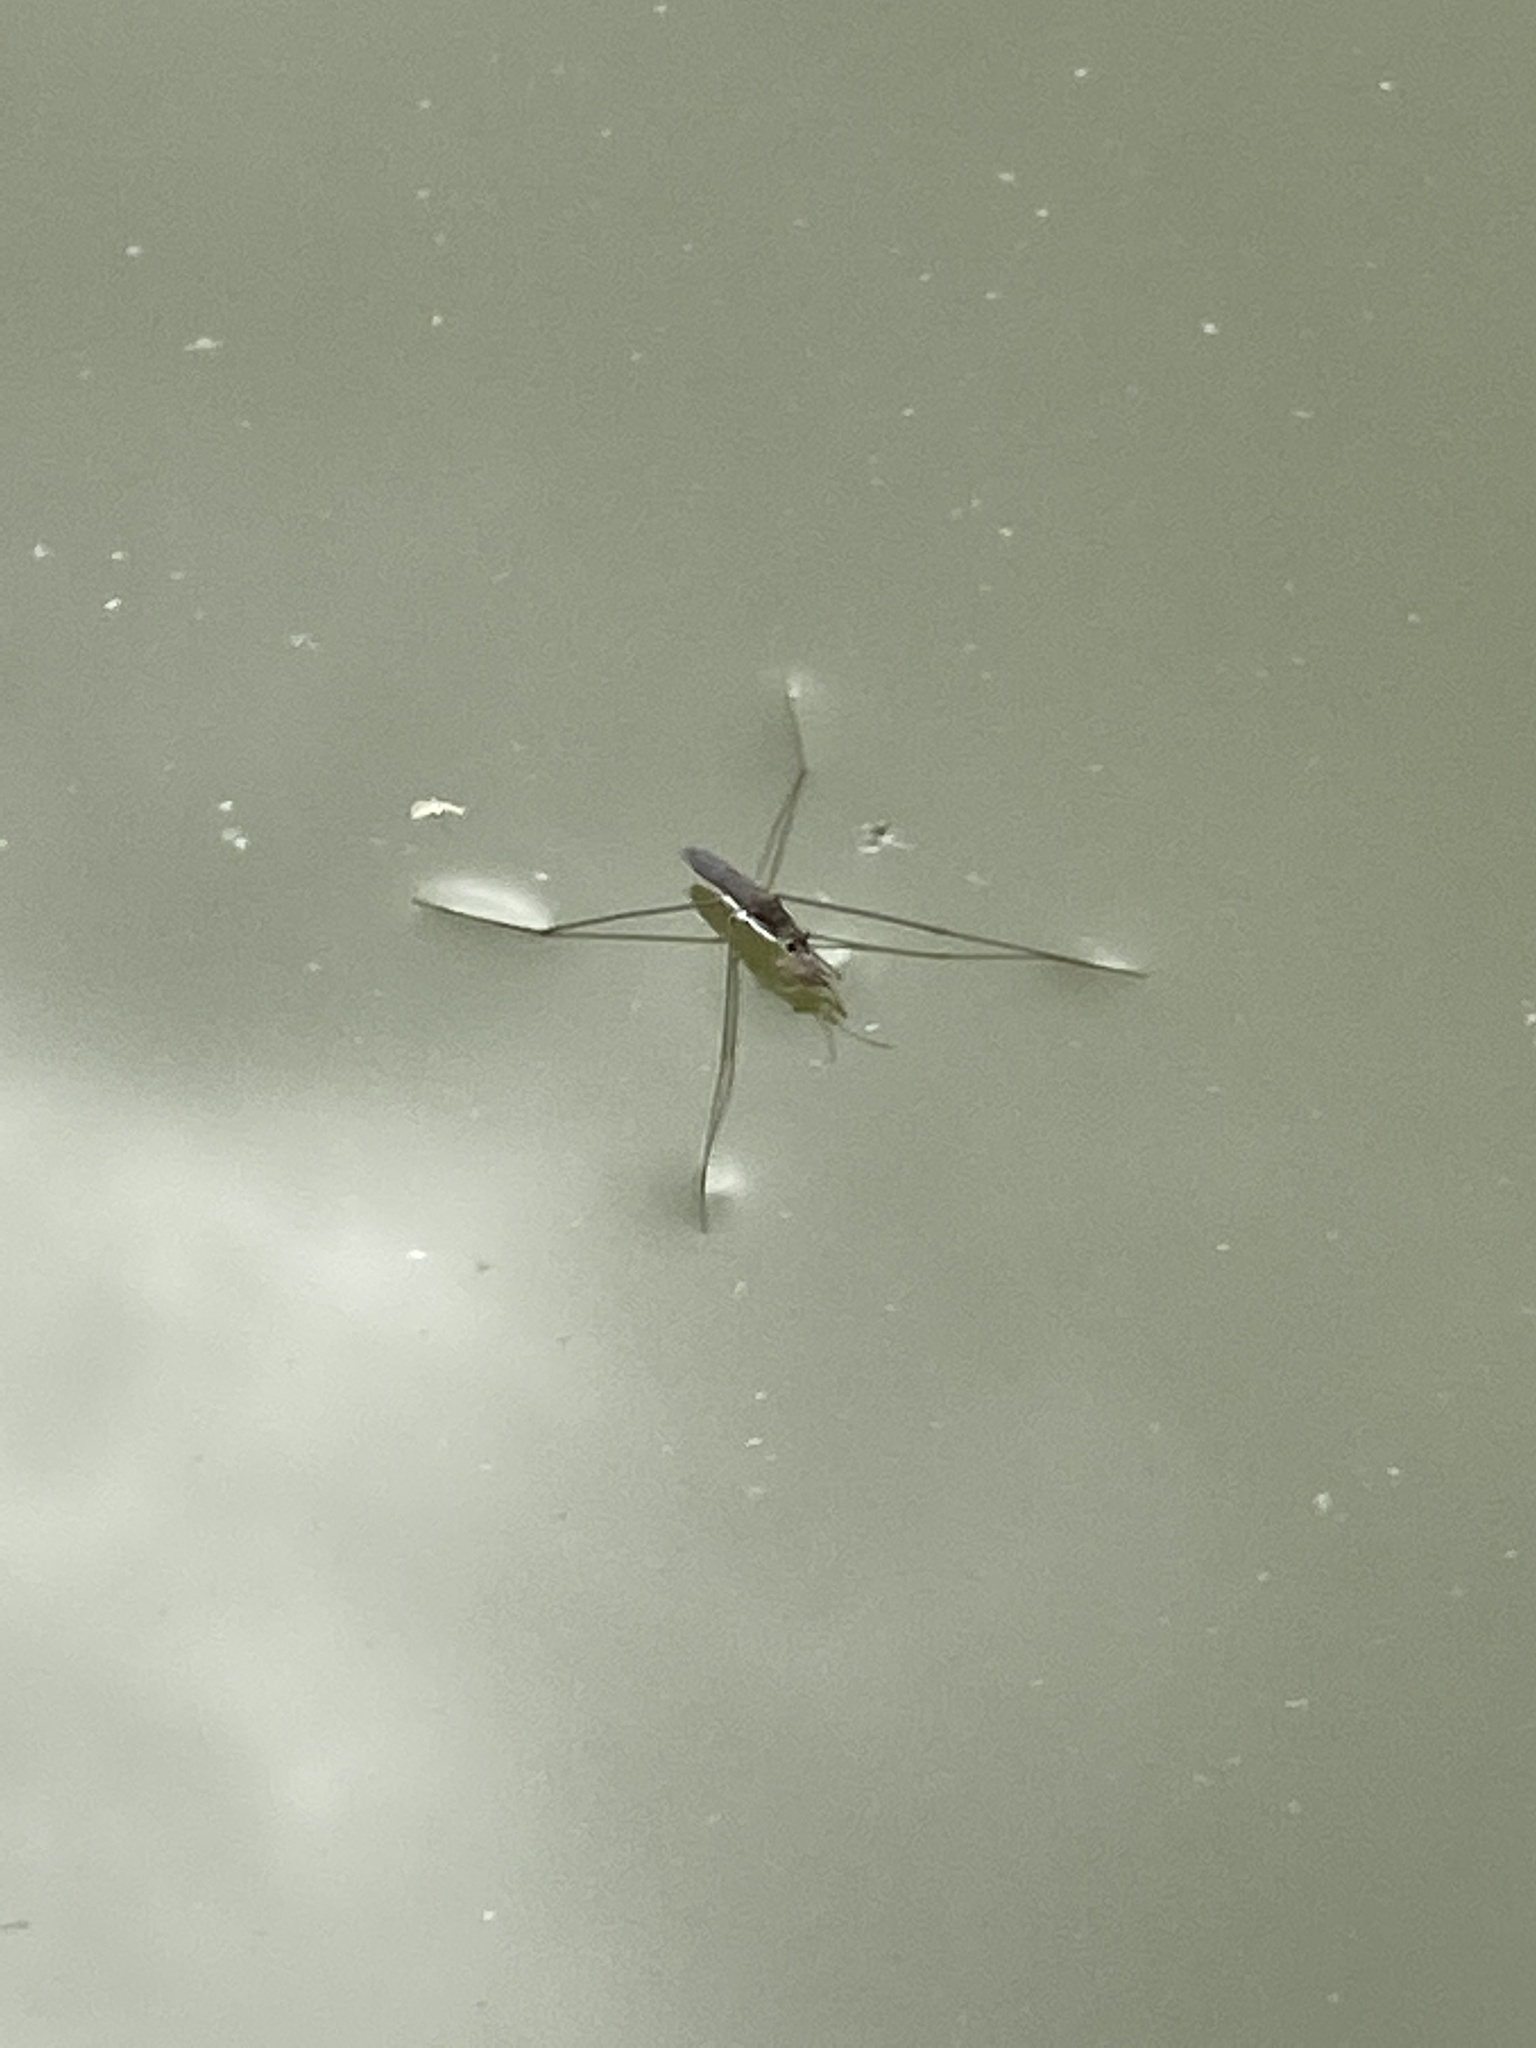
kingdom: Animalia
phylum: Arthropoda
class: Insecta
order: Hemiptera
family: Gerridae
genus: Aquarius
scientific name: Aquarius paludum
